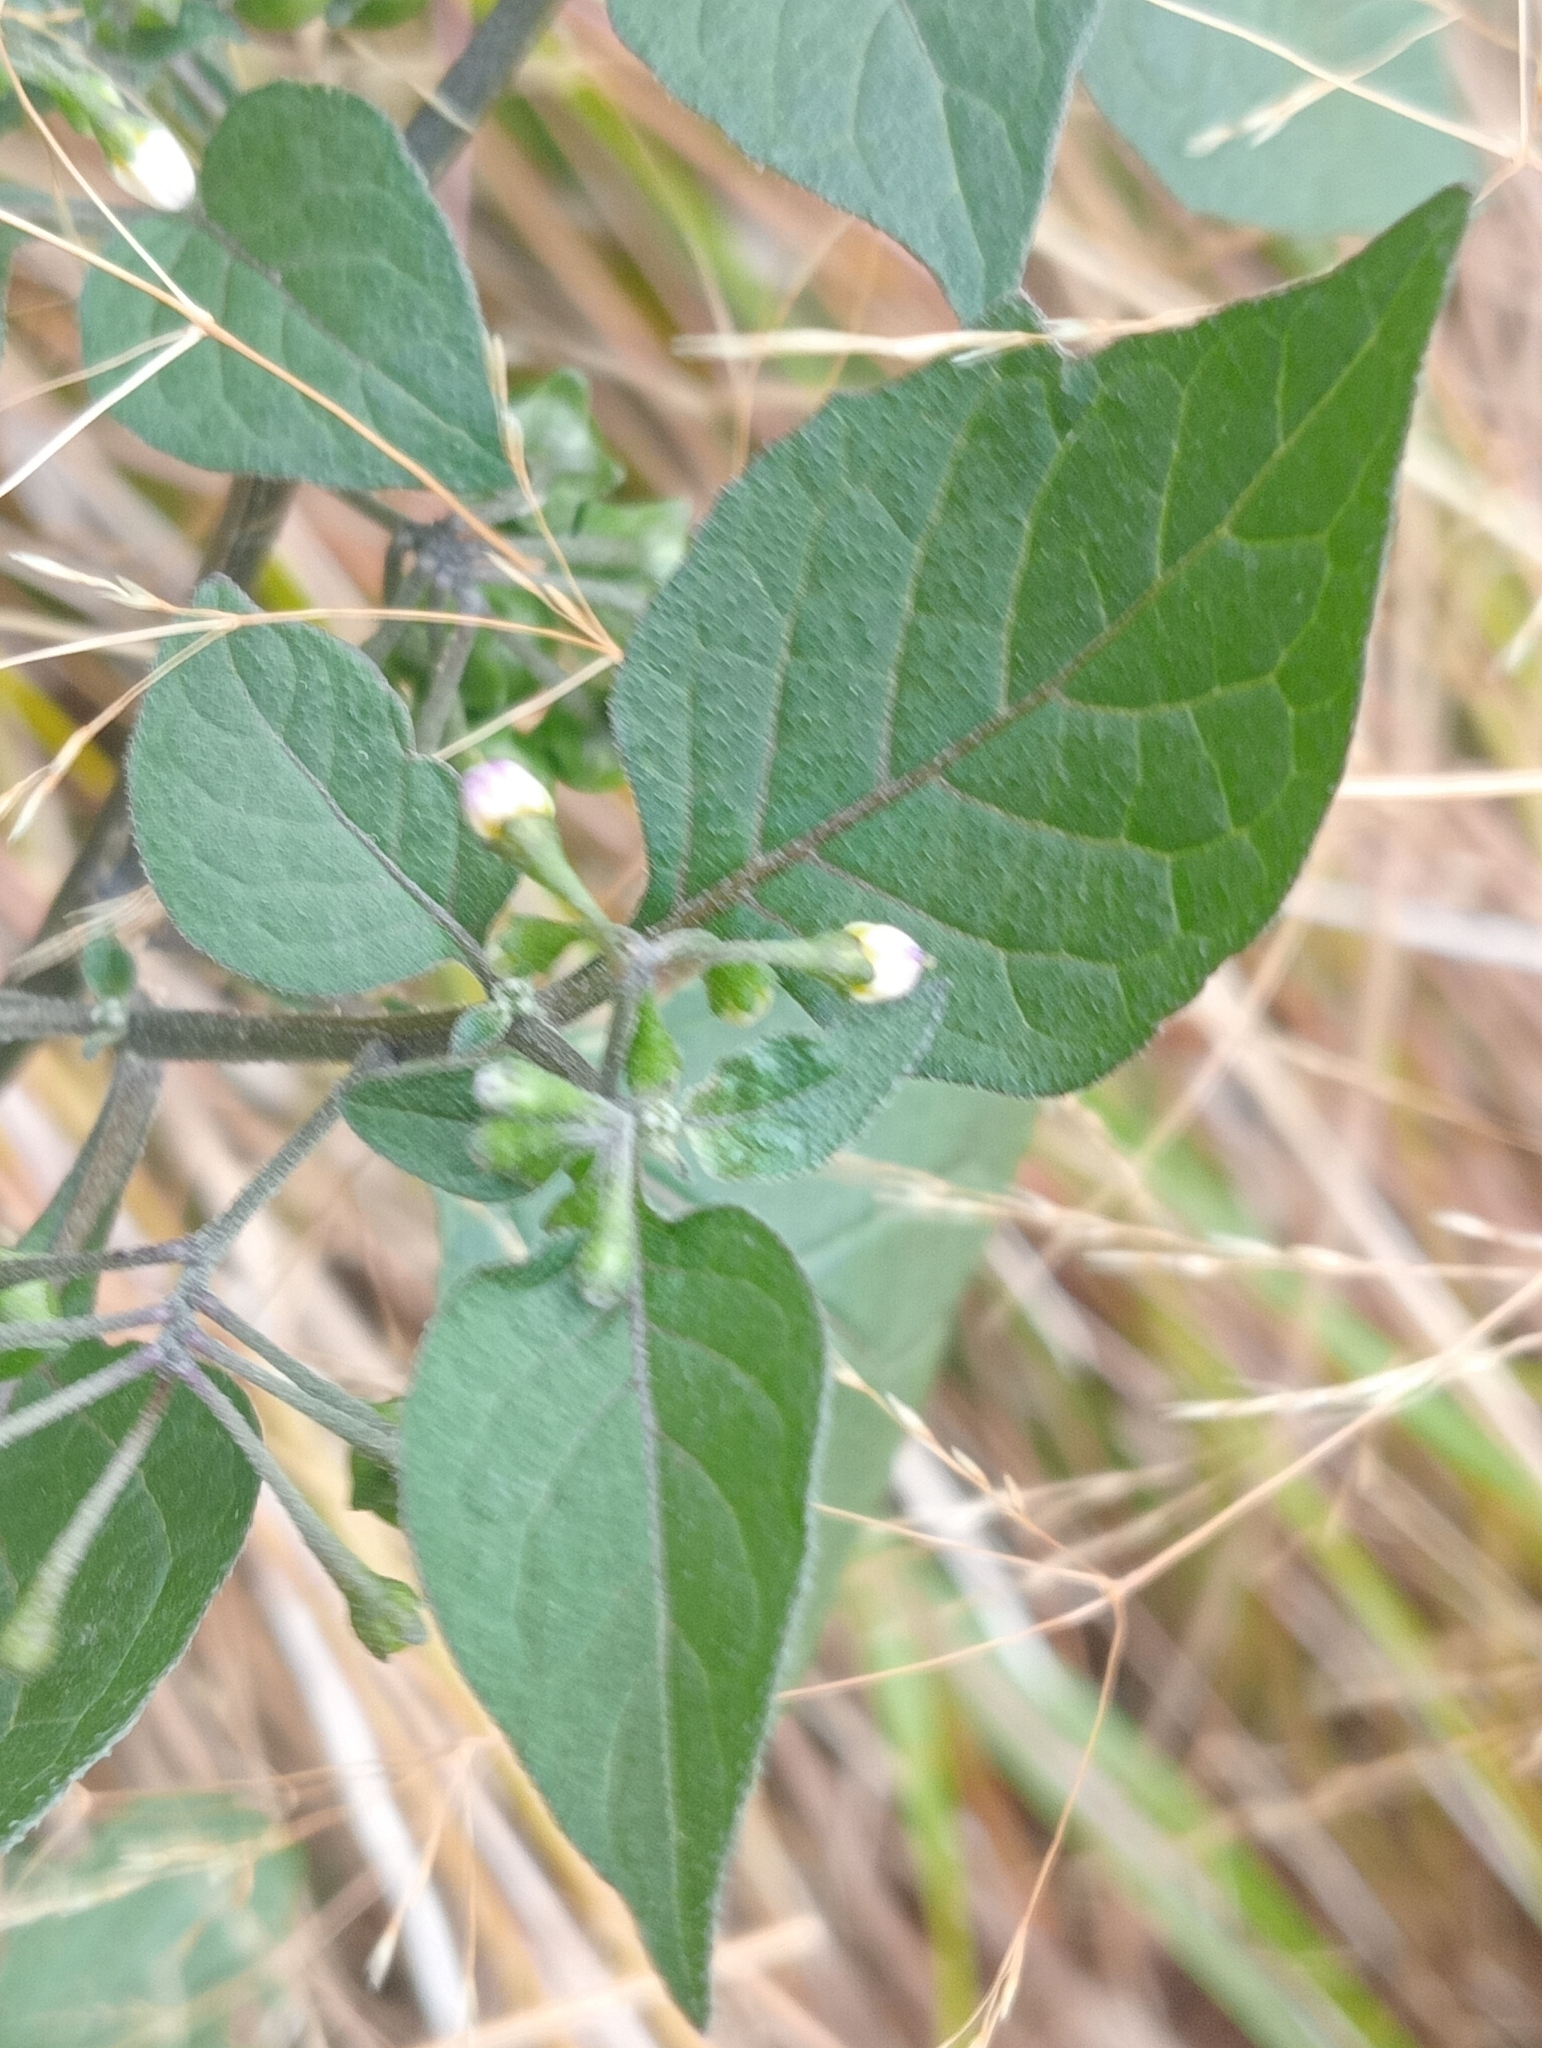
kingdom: Plantae
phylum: Tracheophyta
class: Magnoliopsida
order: Solanales
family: Solanaceae
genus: Solanum
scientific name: Solanum nigrum
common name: Black nightshade
